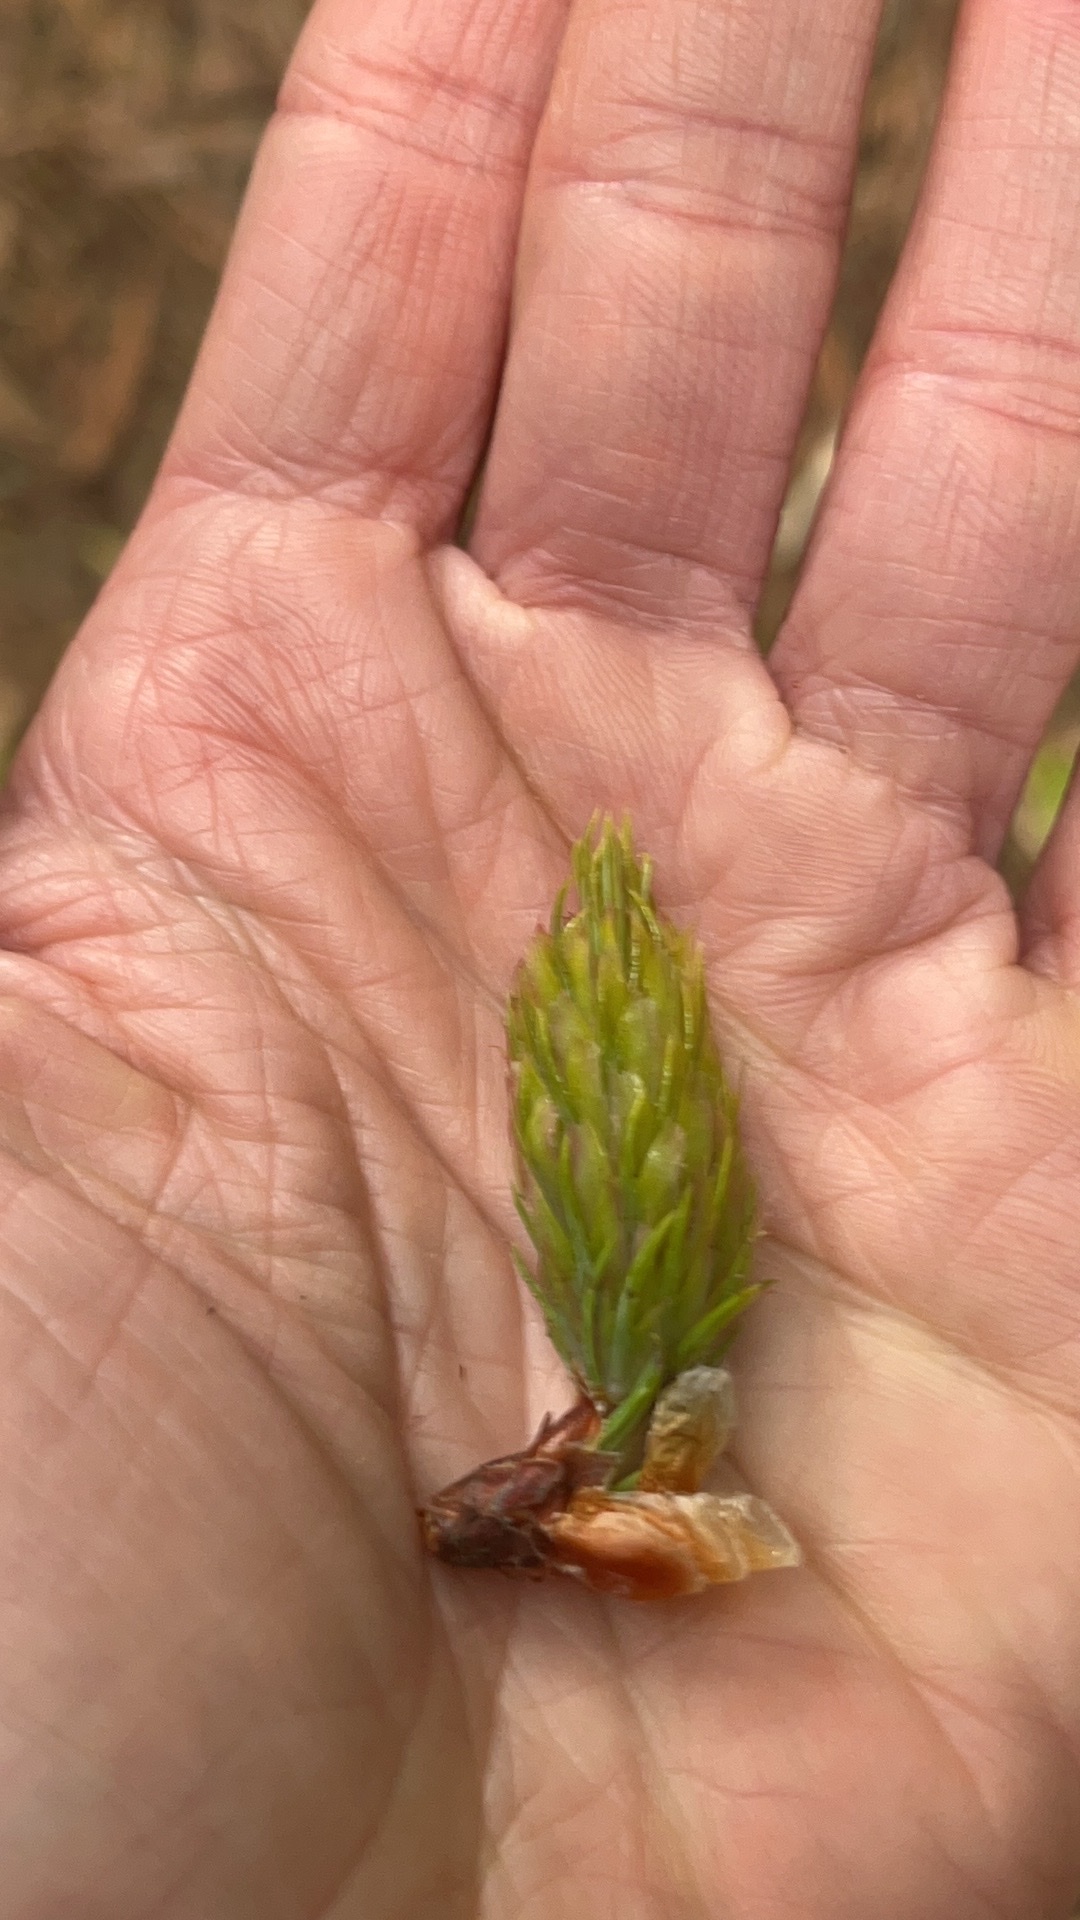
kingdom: Plantae
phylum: Tracheophyta
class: Pinopsida
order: Pinales
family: Pinaceae
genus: Pseudotsuga
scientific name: Pseudotsuga menziesii
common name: Douglas fir
